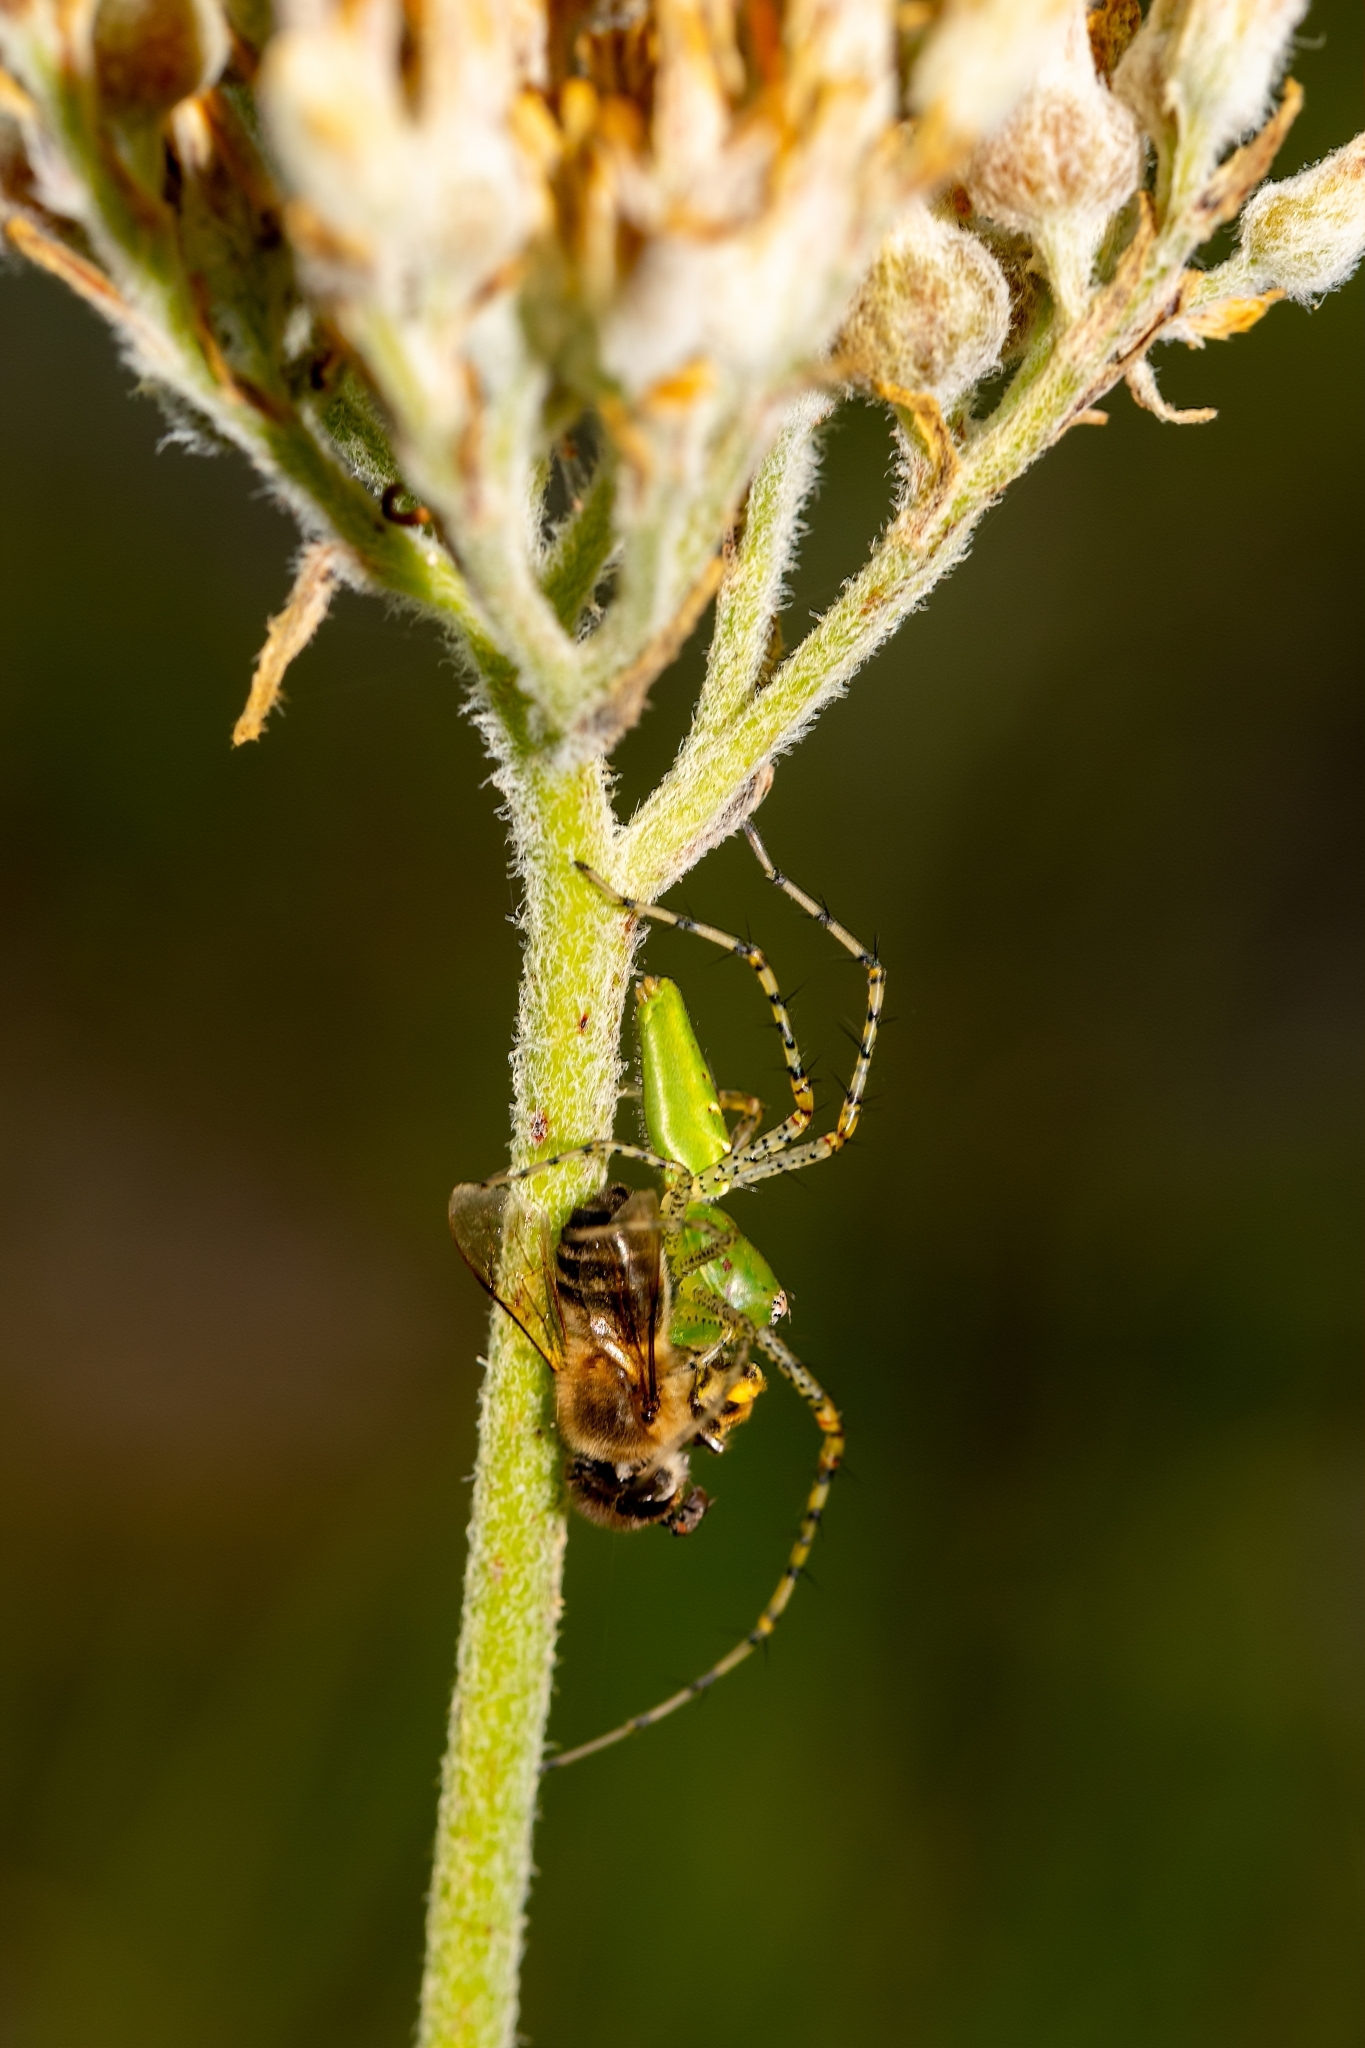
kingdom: Animalia
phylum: Arthropoda
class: Arachnida
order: Araneae
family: Oxyopidae
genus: Peucetia
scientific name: Peucetia viridans
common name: Lynx spiders
